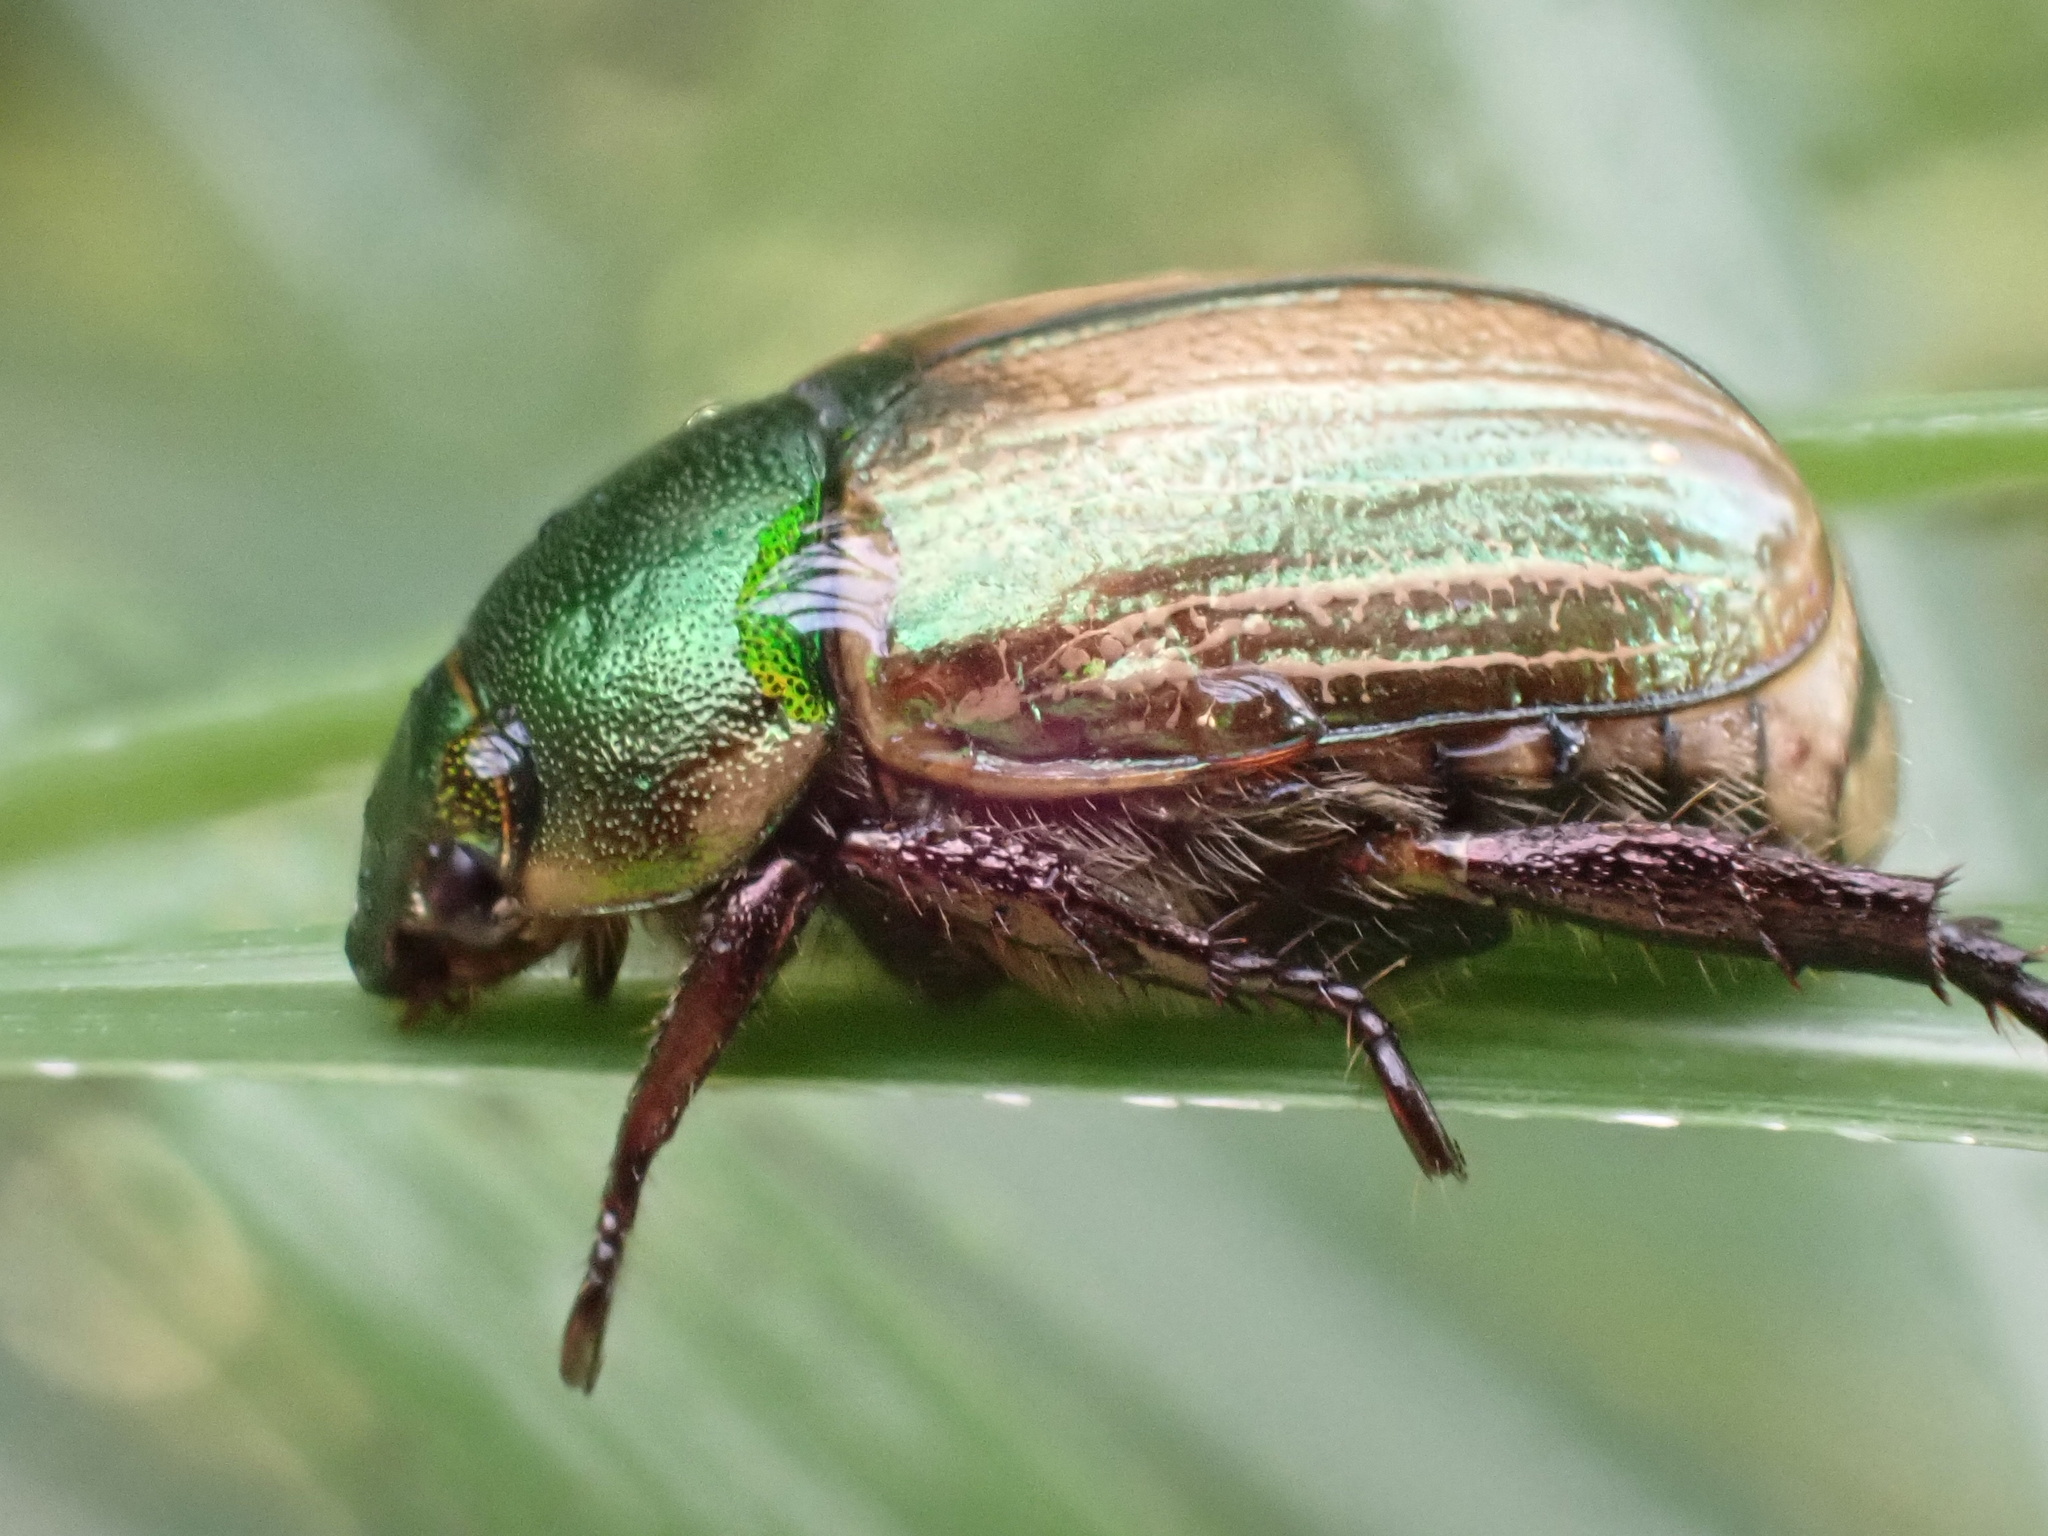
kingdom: Animalia
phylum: Arthropoda
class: Insecta
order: Coleoptera
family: Scarabaeidae
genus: Mimela
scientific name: Mimela junii
